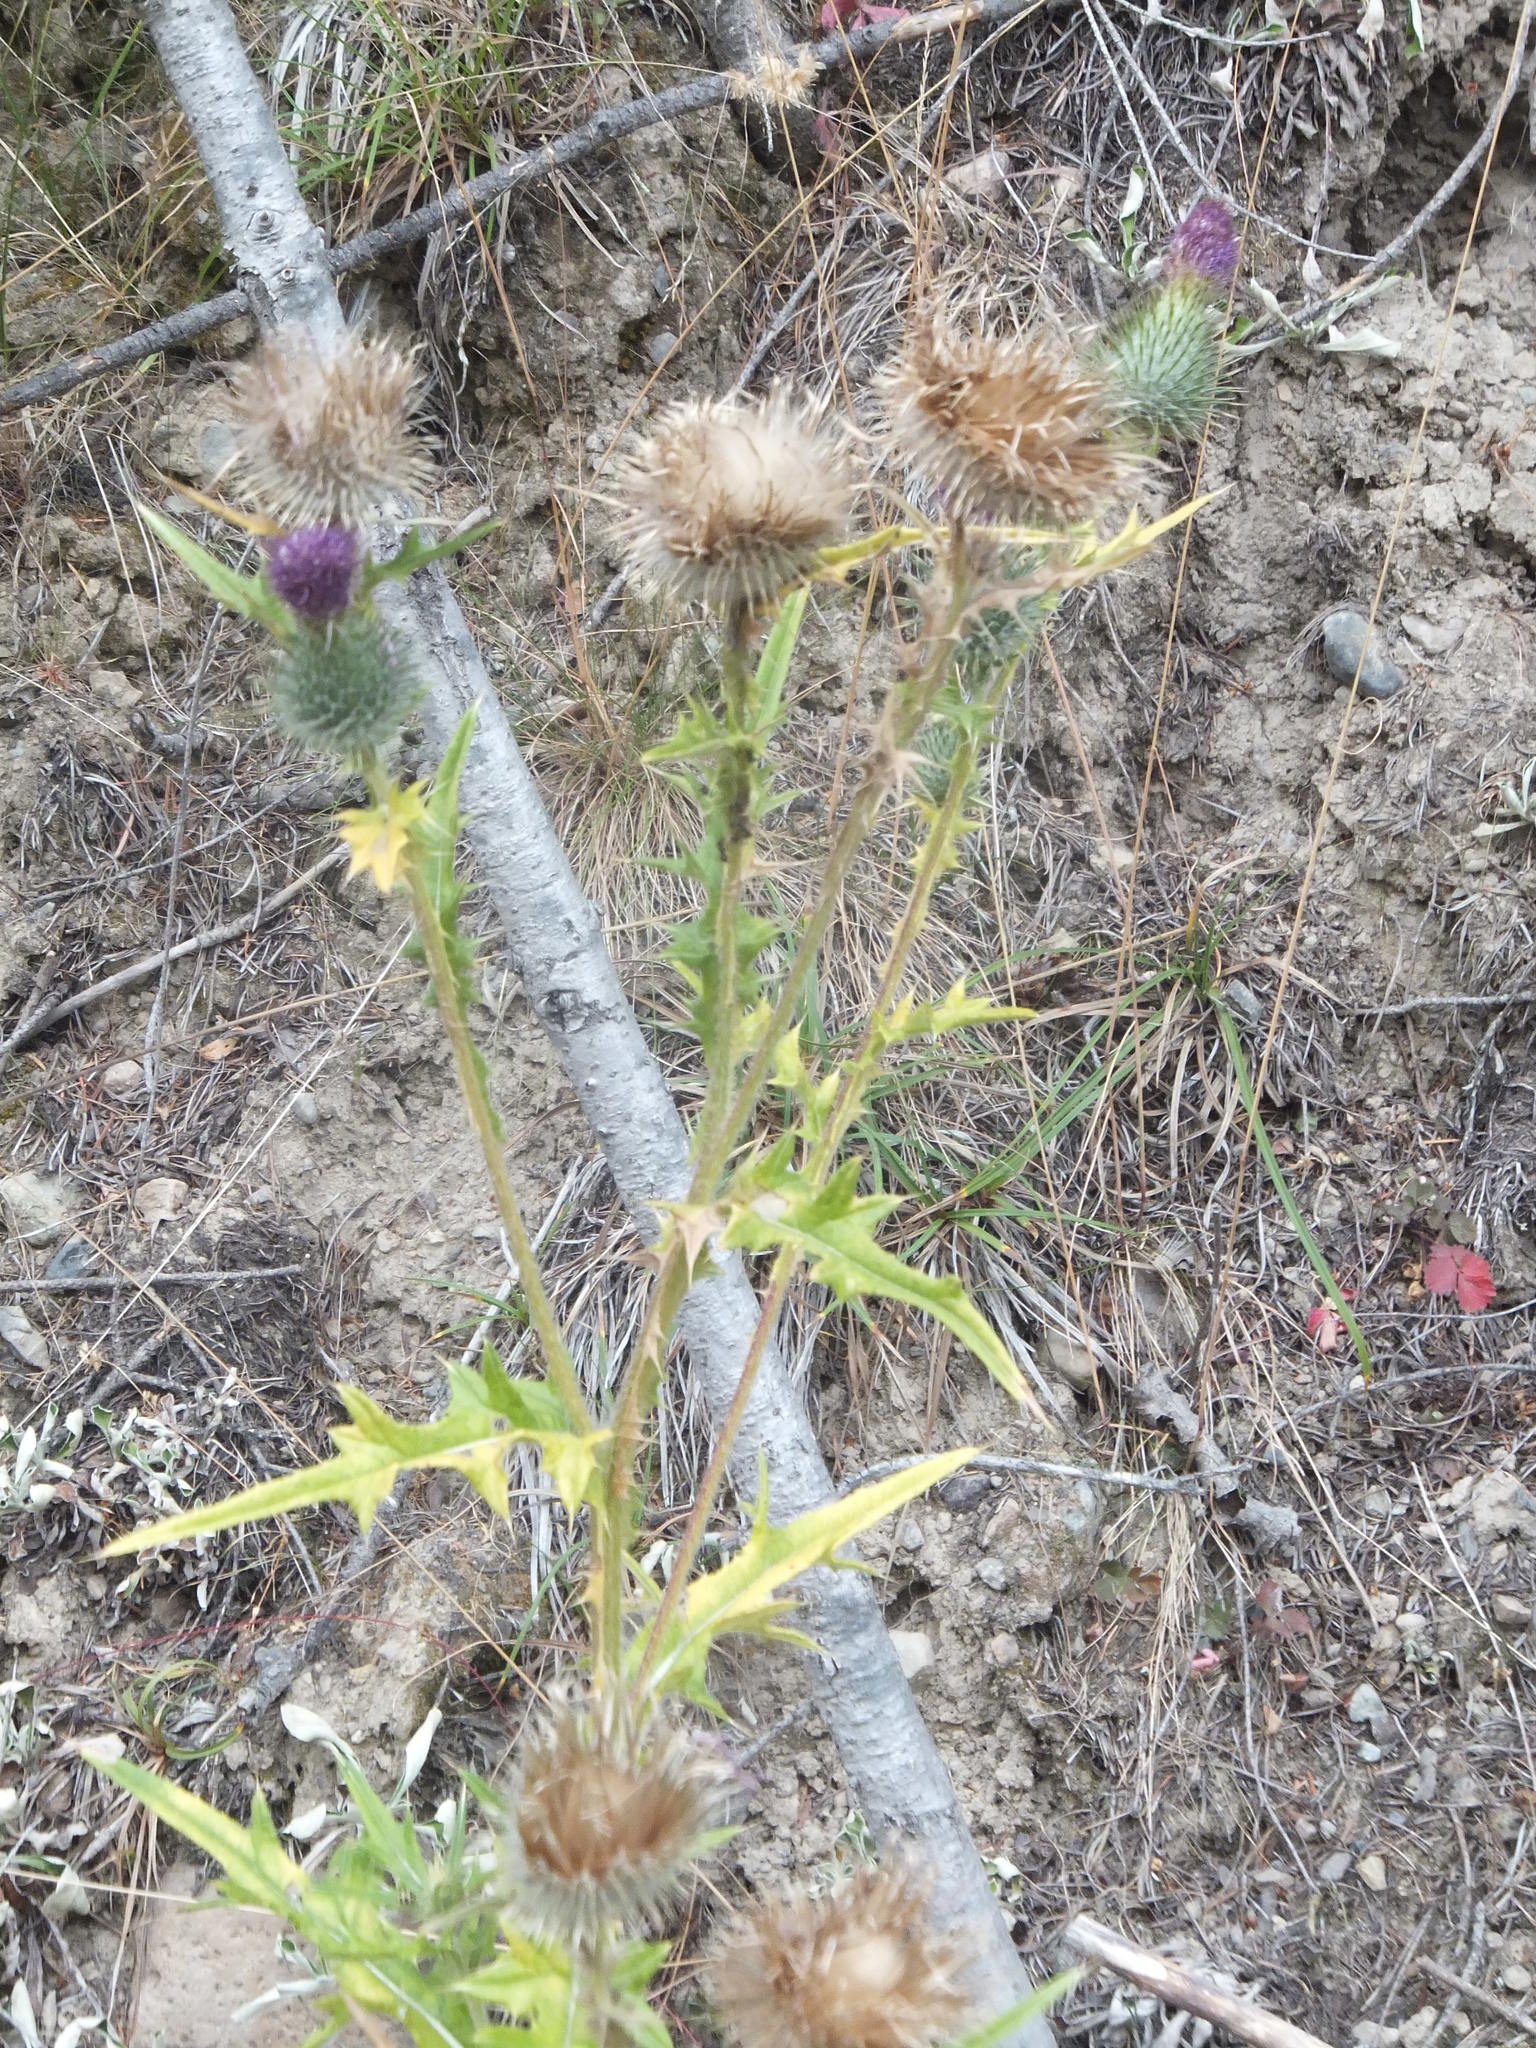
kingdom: Plantae
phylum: Tracheophyta
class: Magnoliopsida
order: Asterales
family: Asteraceae
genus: Cirsium
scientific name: Cirsium vulgare
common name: Bull thistle
